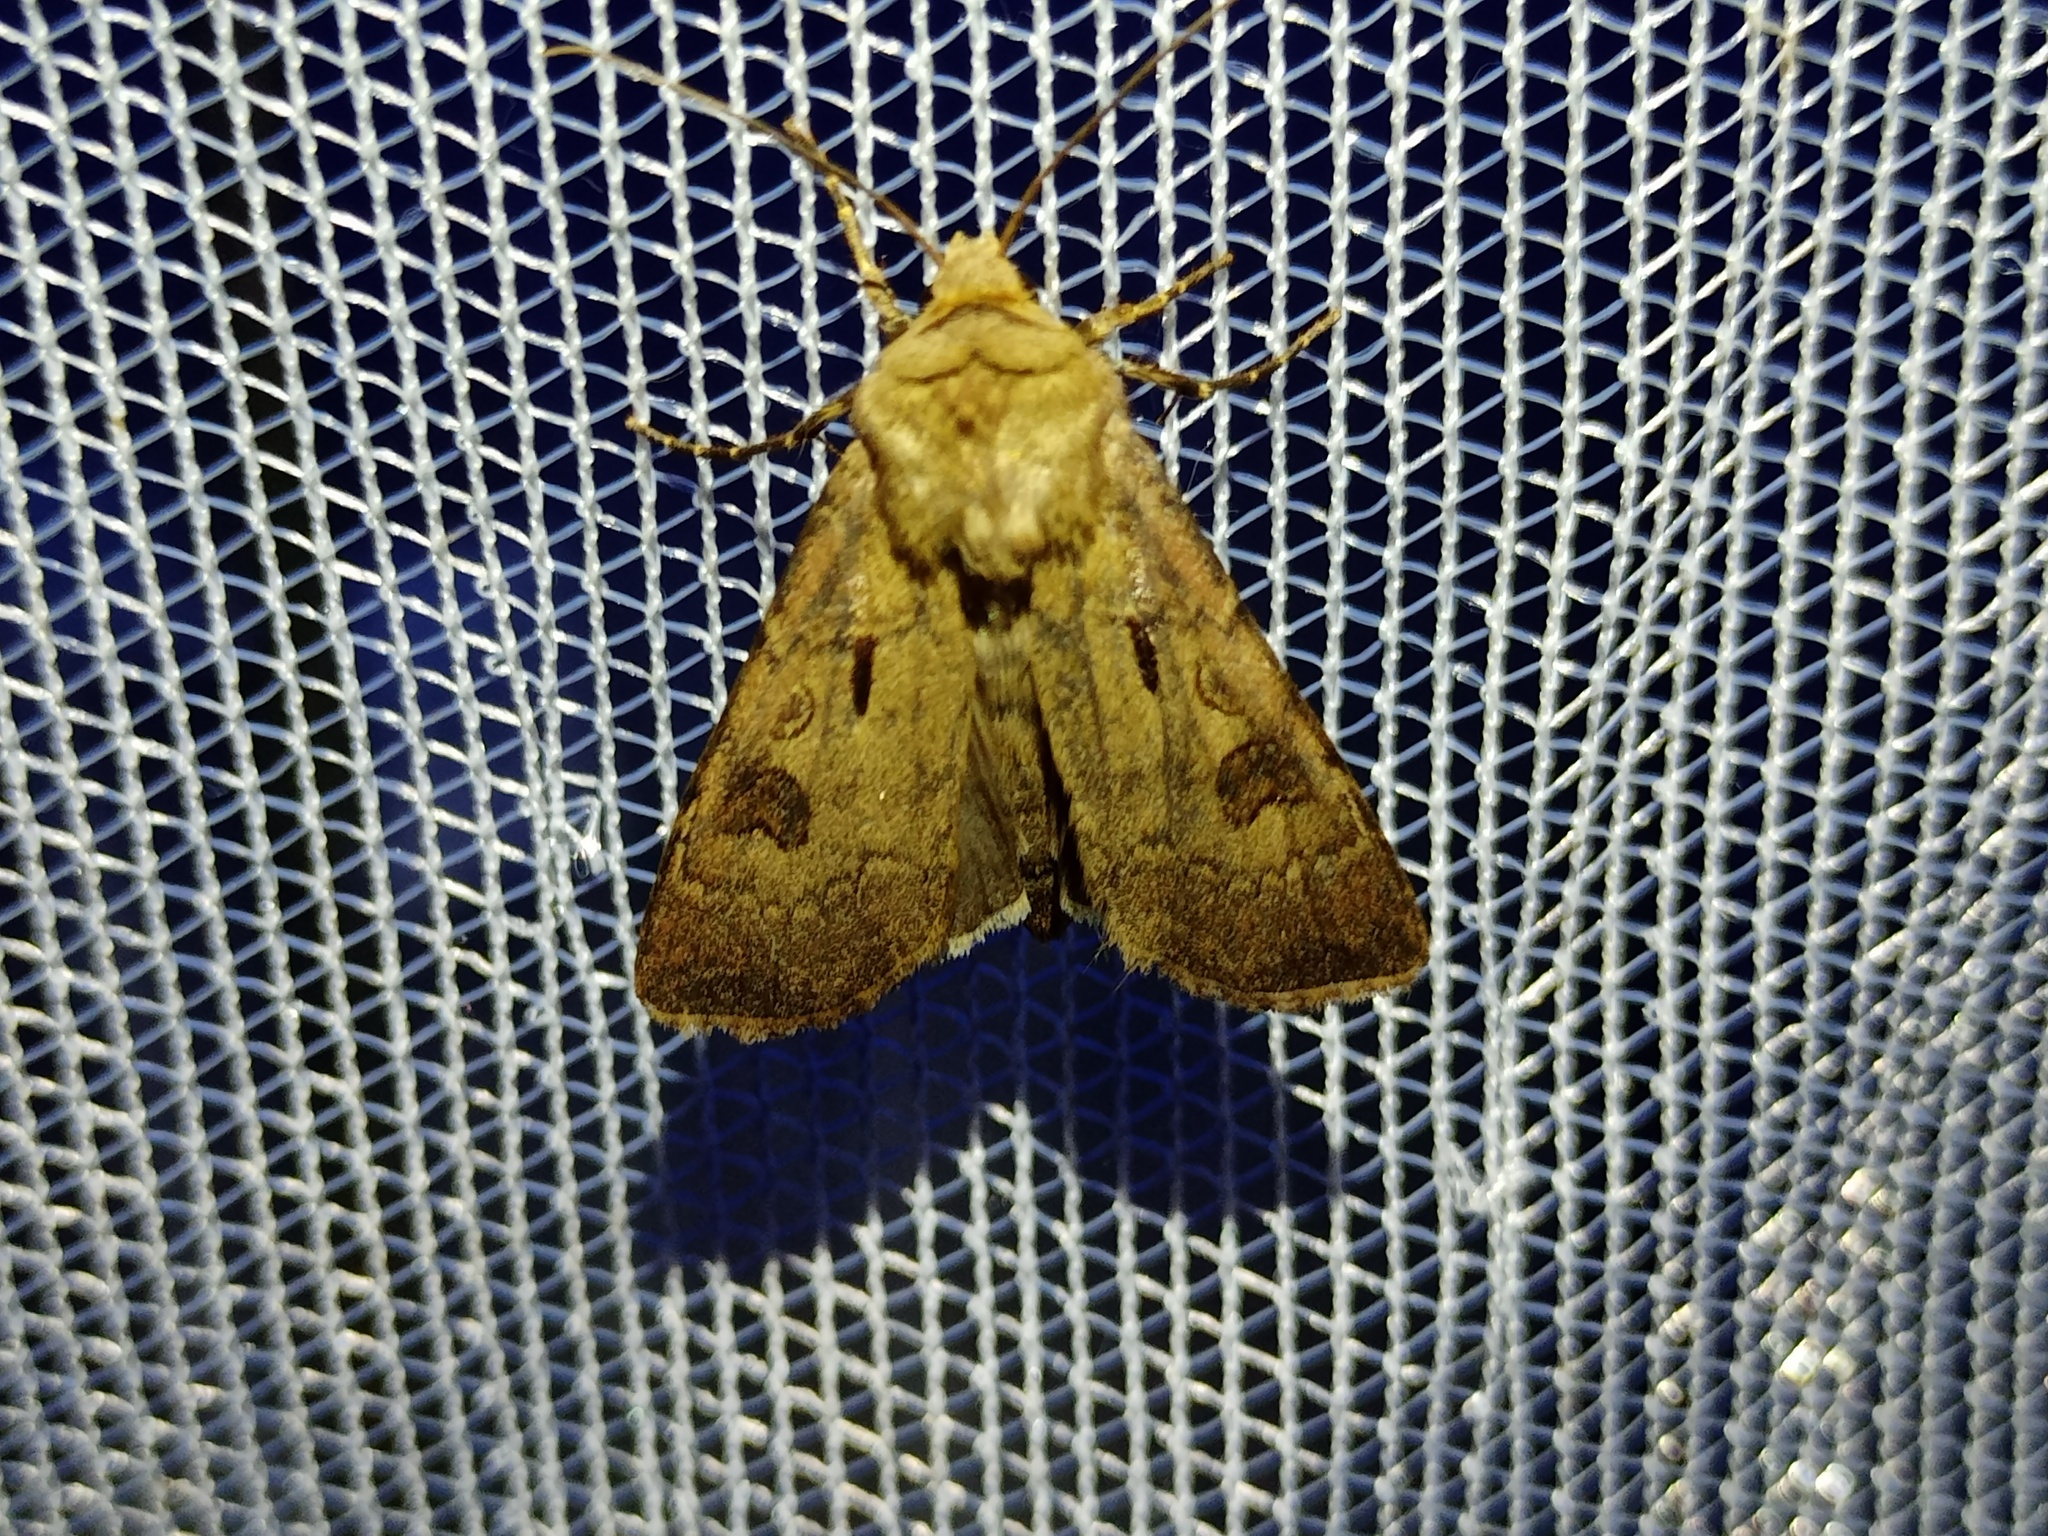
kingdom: Animalia
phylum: Arthropoda
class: Insecta
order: Lepidoptera
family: Noctuidae
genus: Agrotis
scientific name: Agrotis exclamationis
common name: Heart and dart
